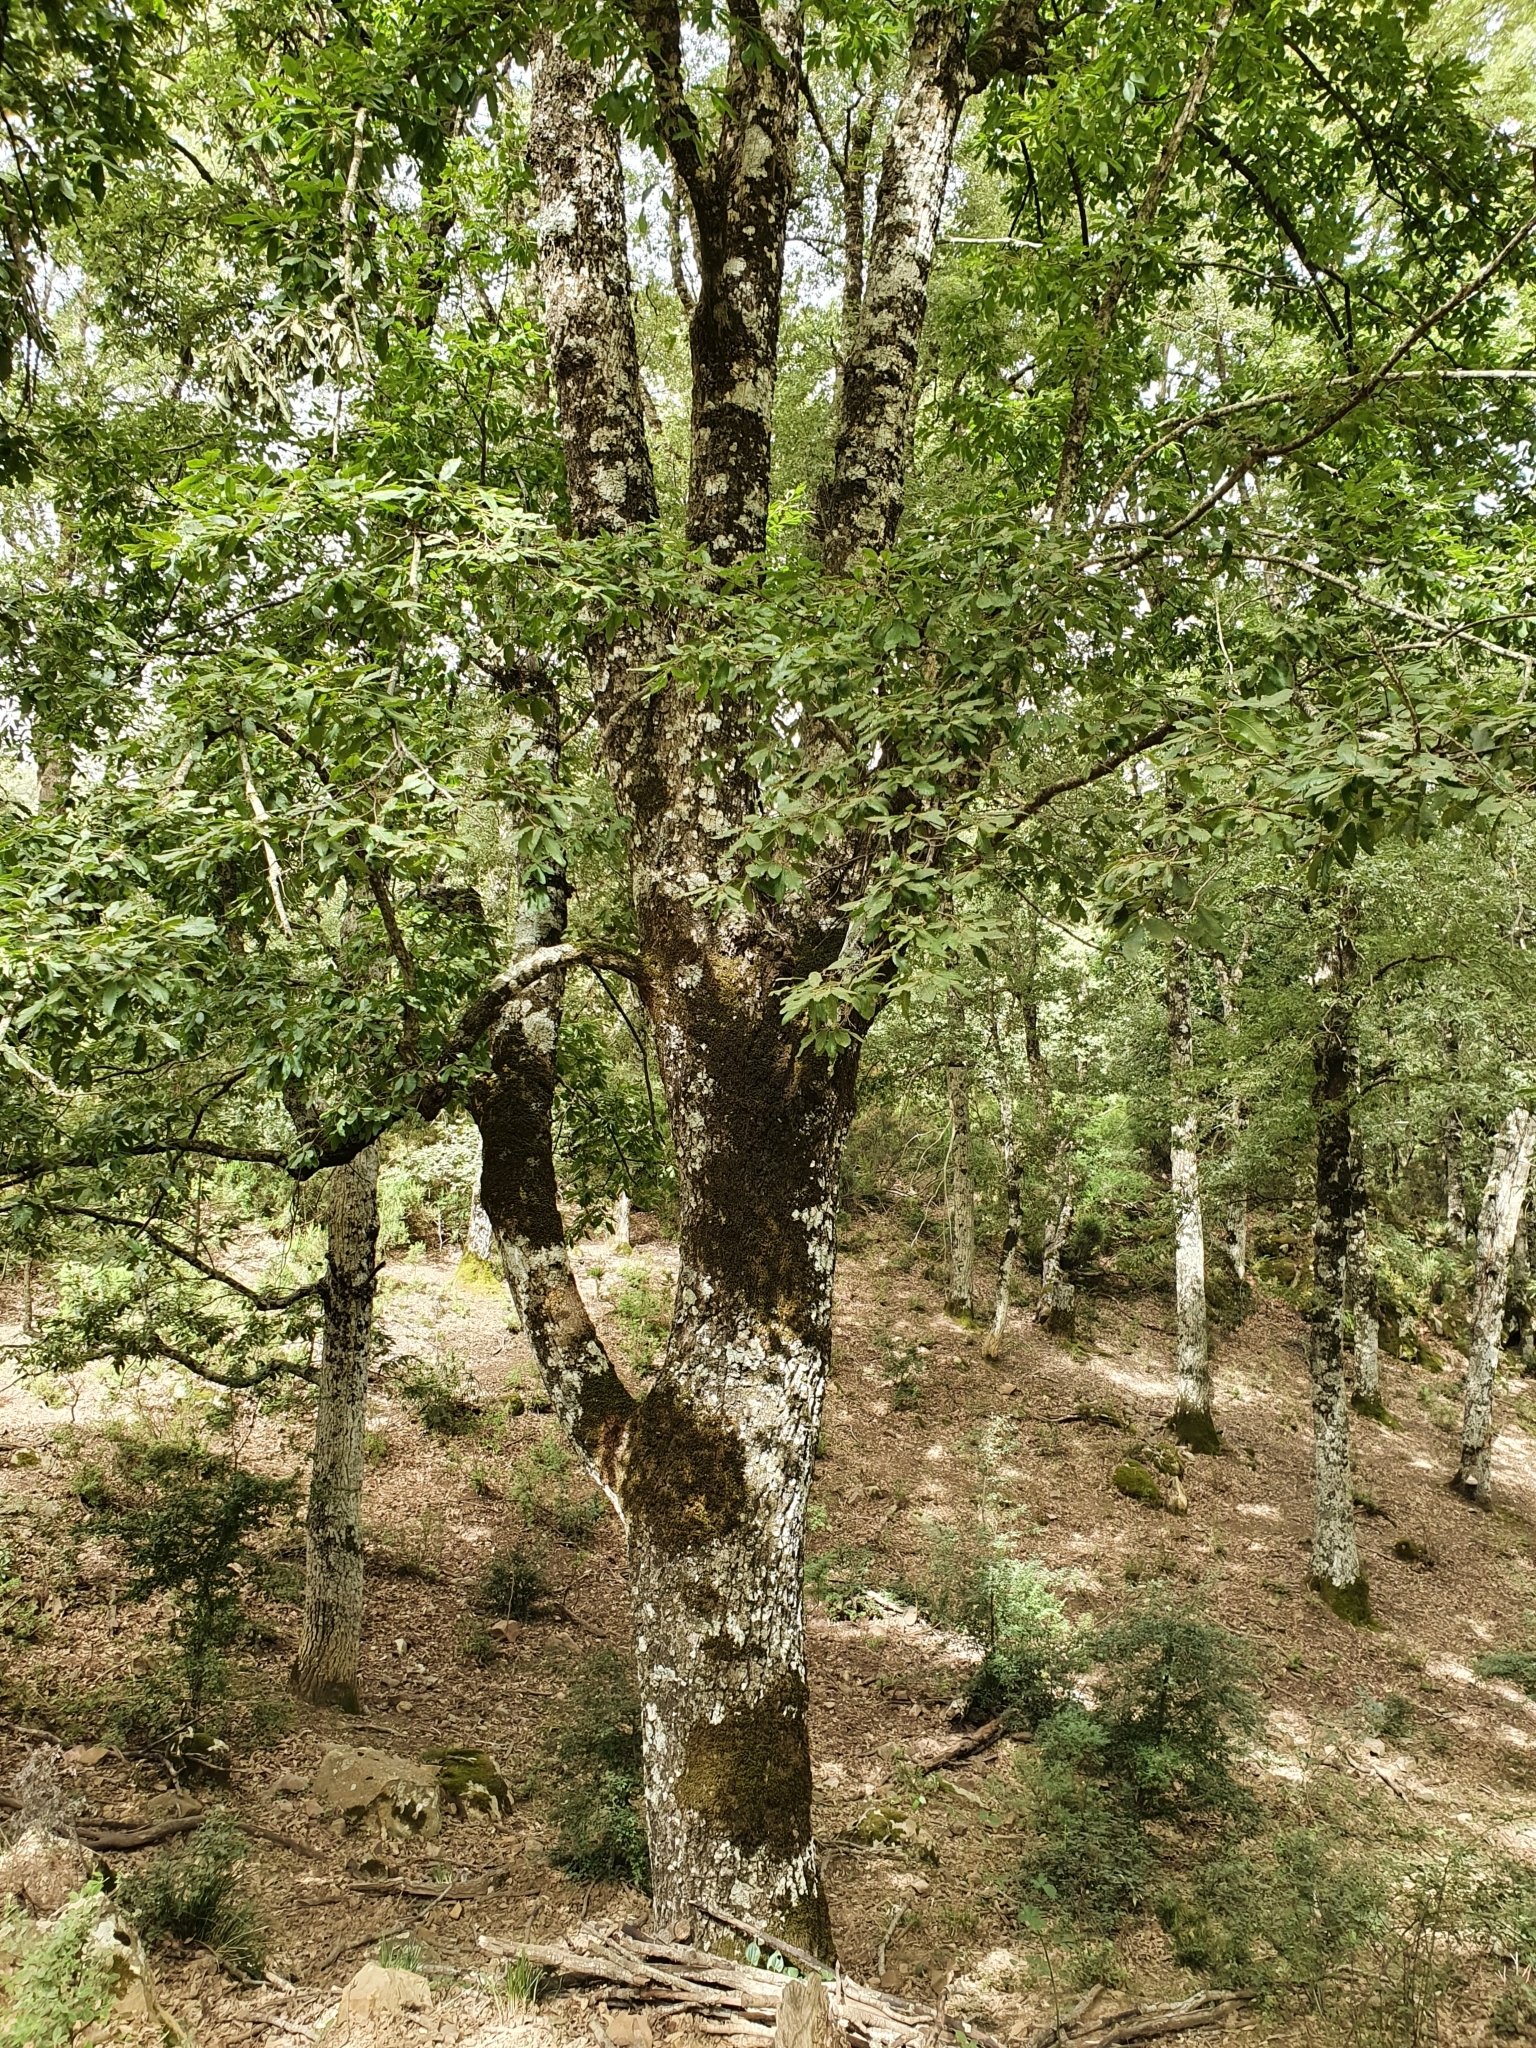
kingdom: Plantae
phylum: Tracheophyta
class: Magnoliopsida
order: Fagales
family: Fagaceae
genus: Quercus
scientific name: Quercus afares
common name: African oak
